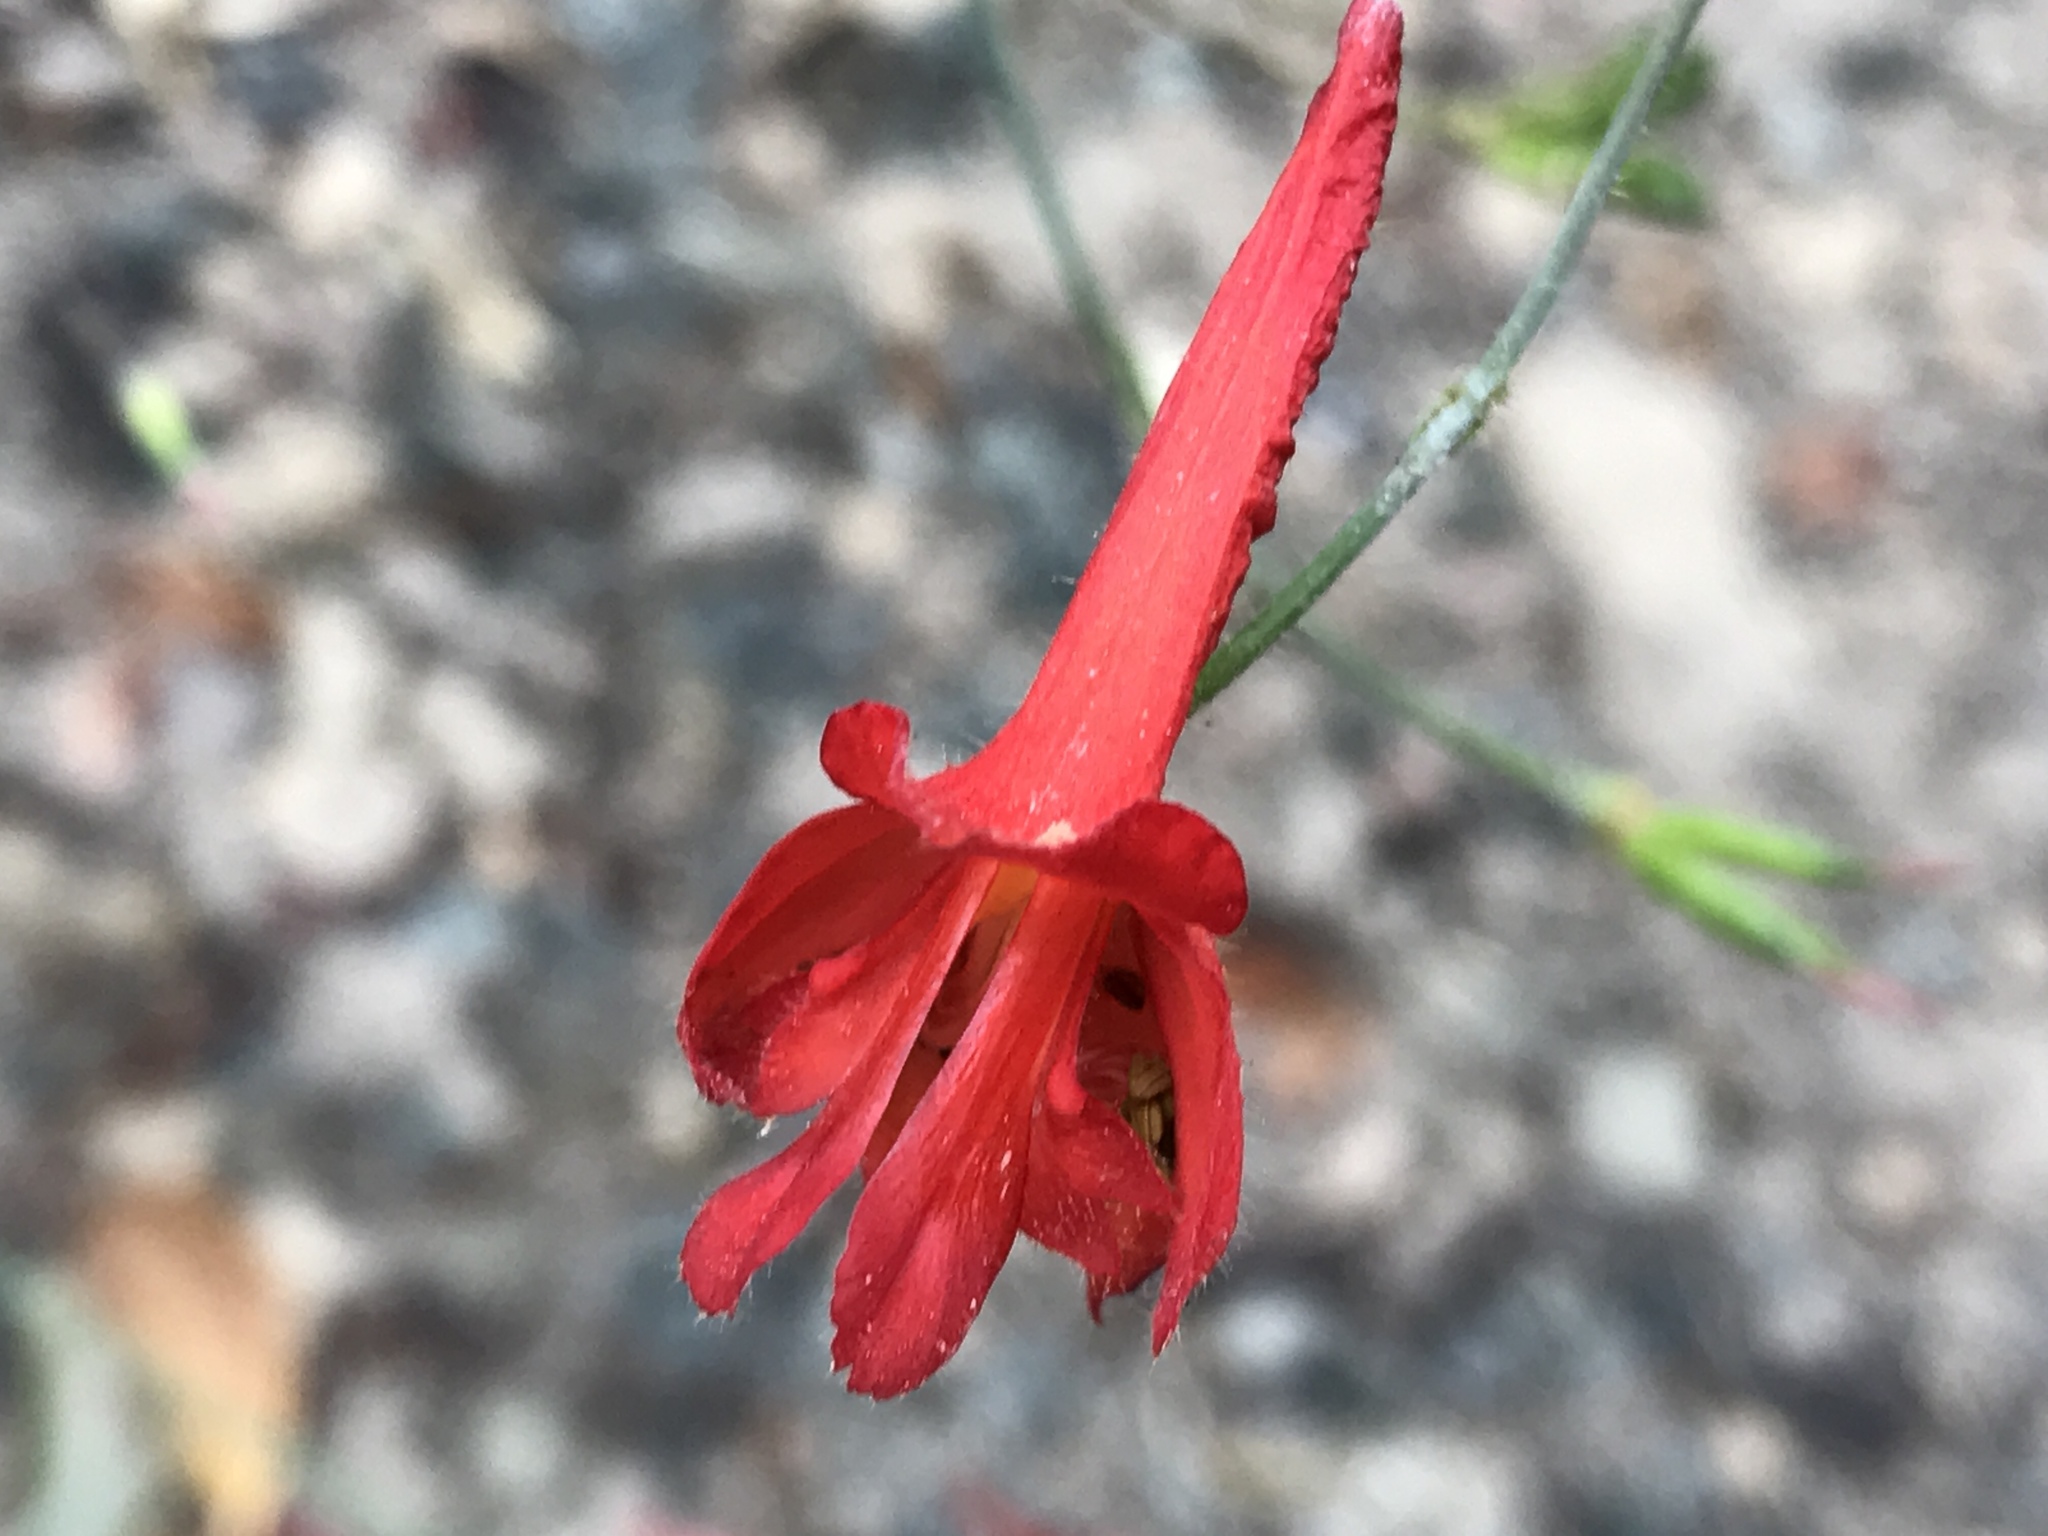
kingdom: Plantae
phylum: Tracheophyta
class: Magnoliopsida
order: Ranunculales
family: Ranunculaceae
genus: Delphinium
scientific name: Delphinium nudicaule
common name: Red larkspur
